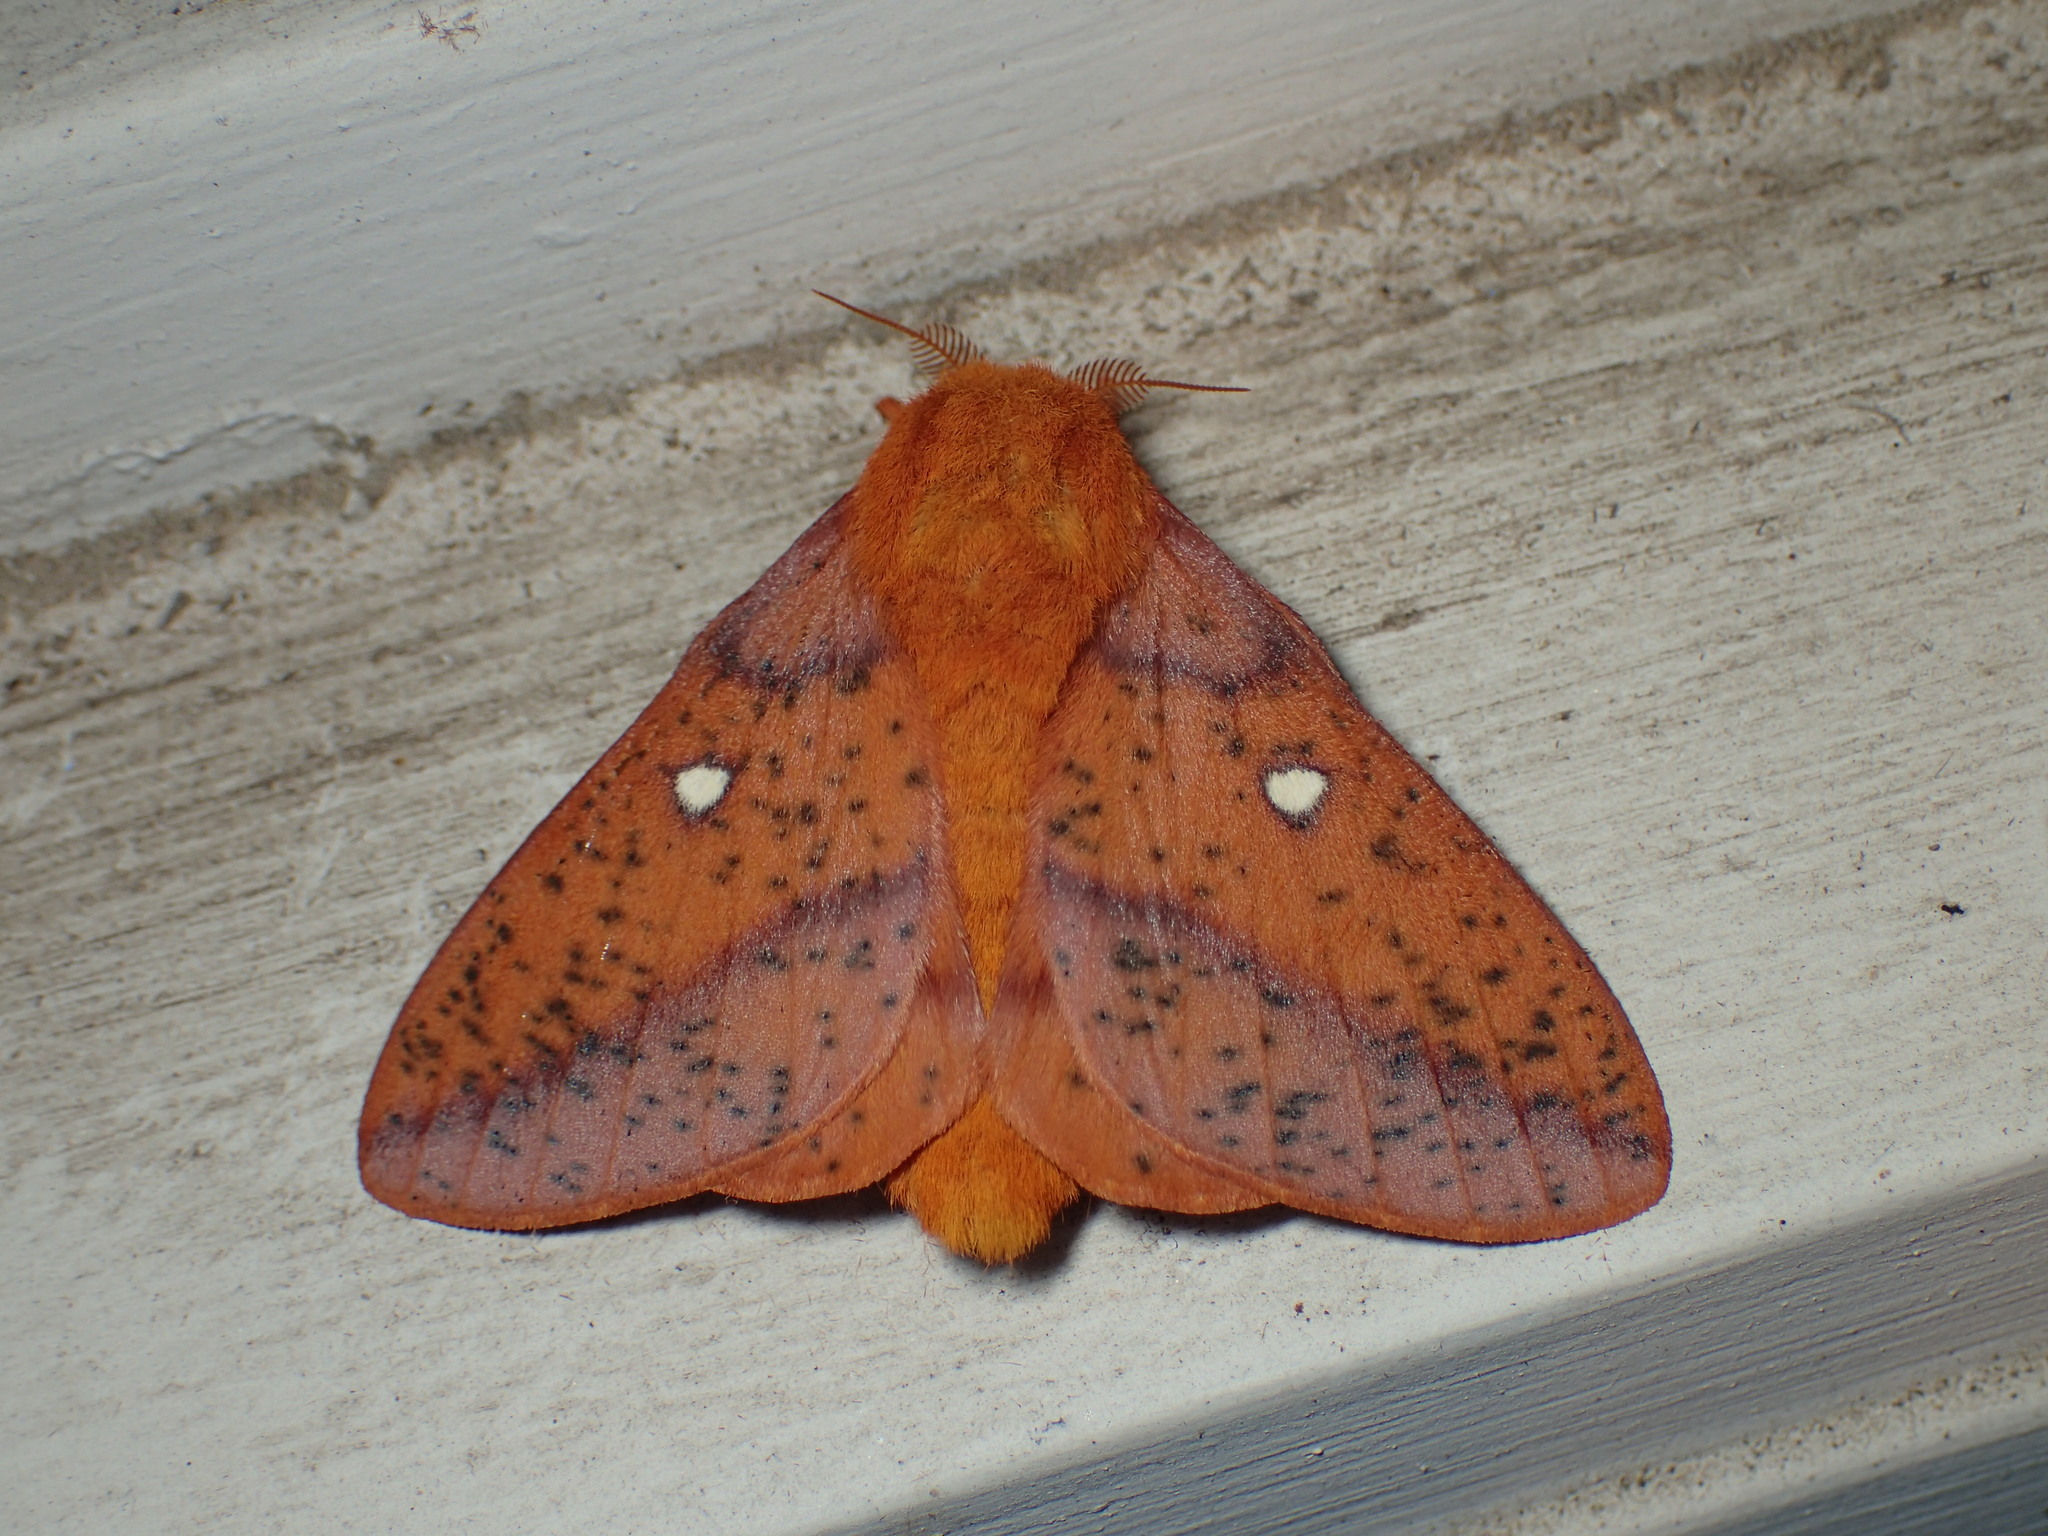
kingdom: Animalia
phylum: Arthropoda
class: Insecta
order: Lepidoptera
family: Saturniidae
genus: Anisota
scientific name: Anisota stigma
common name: Spiny oakworm moth
